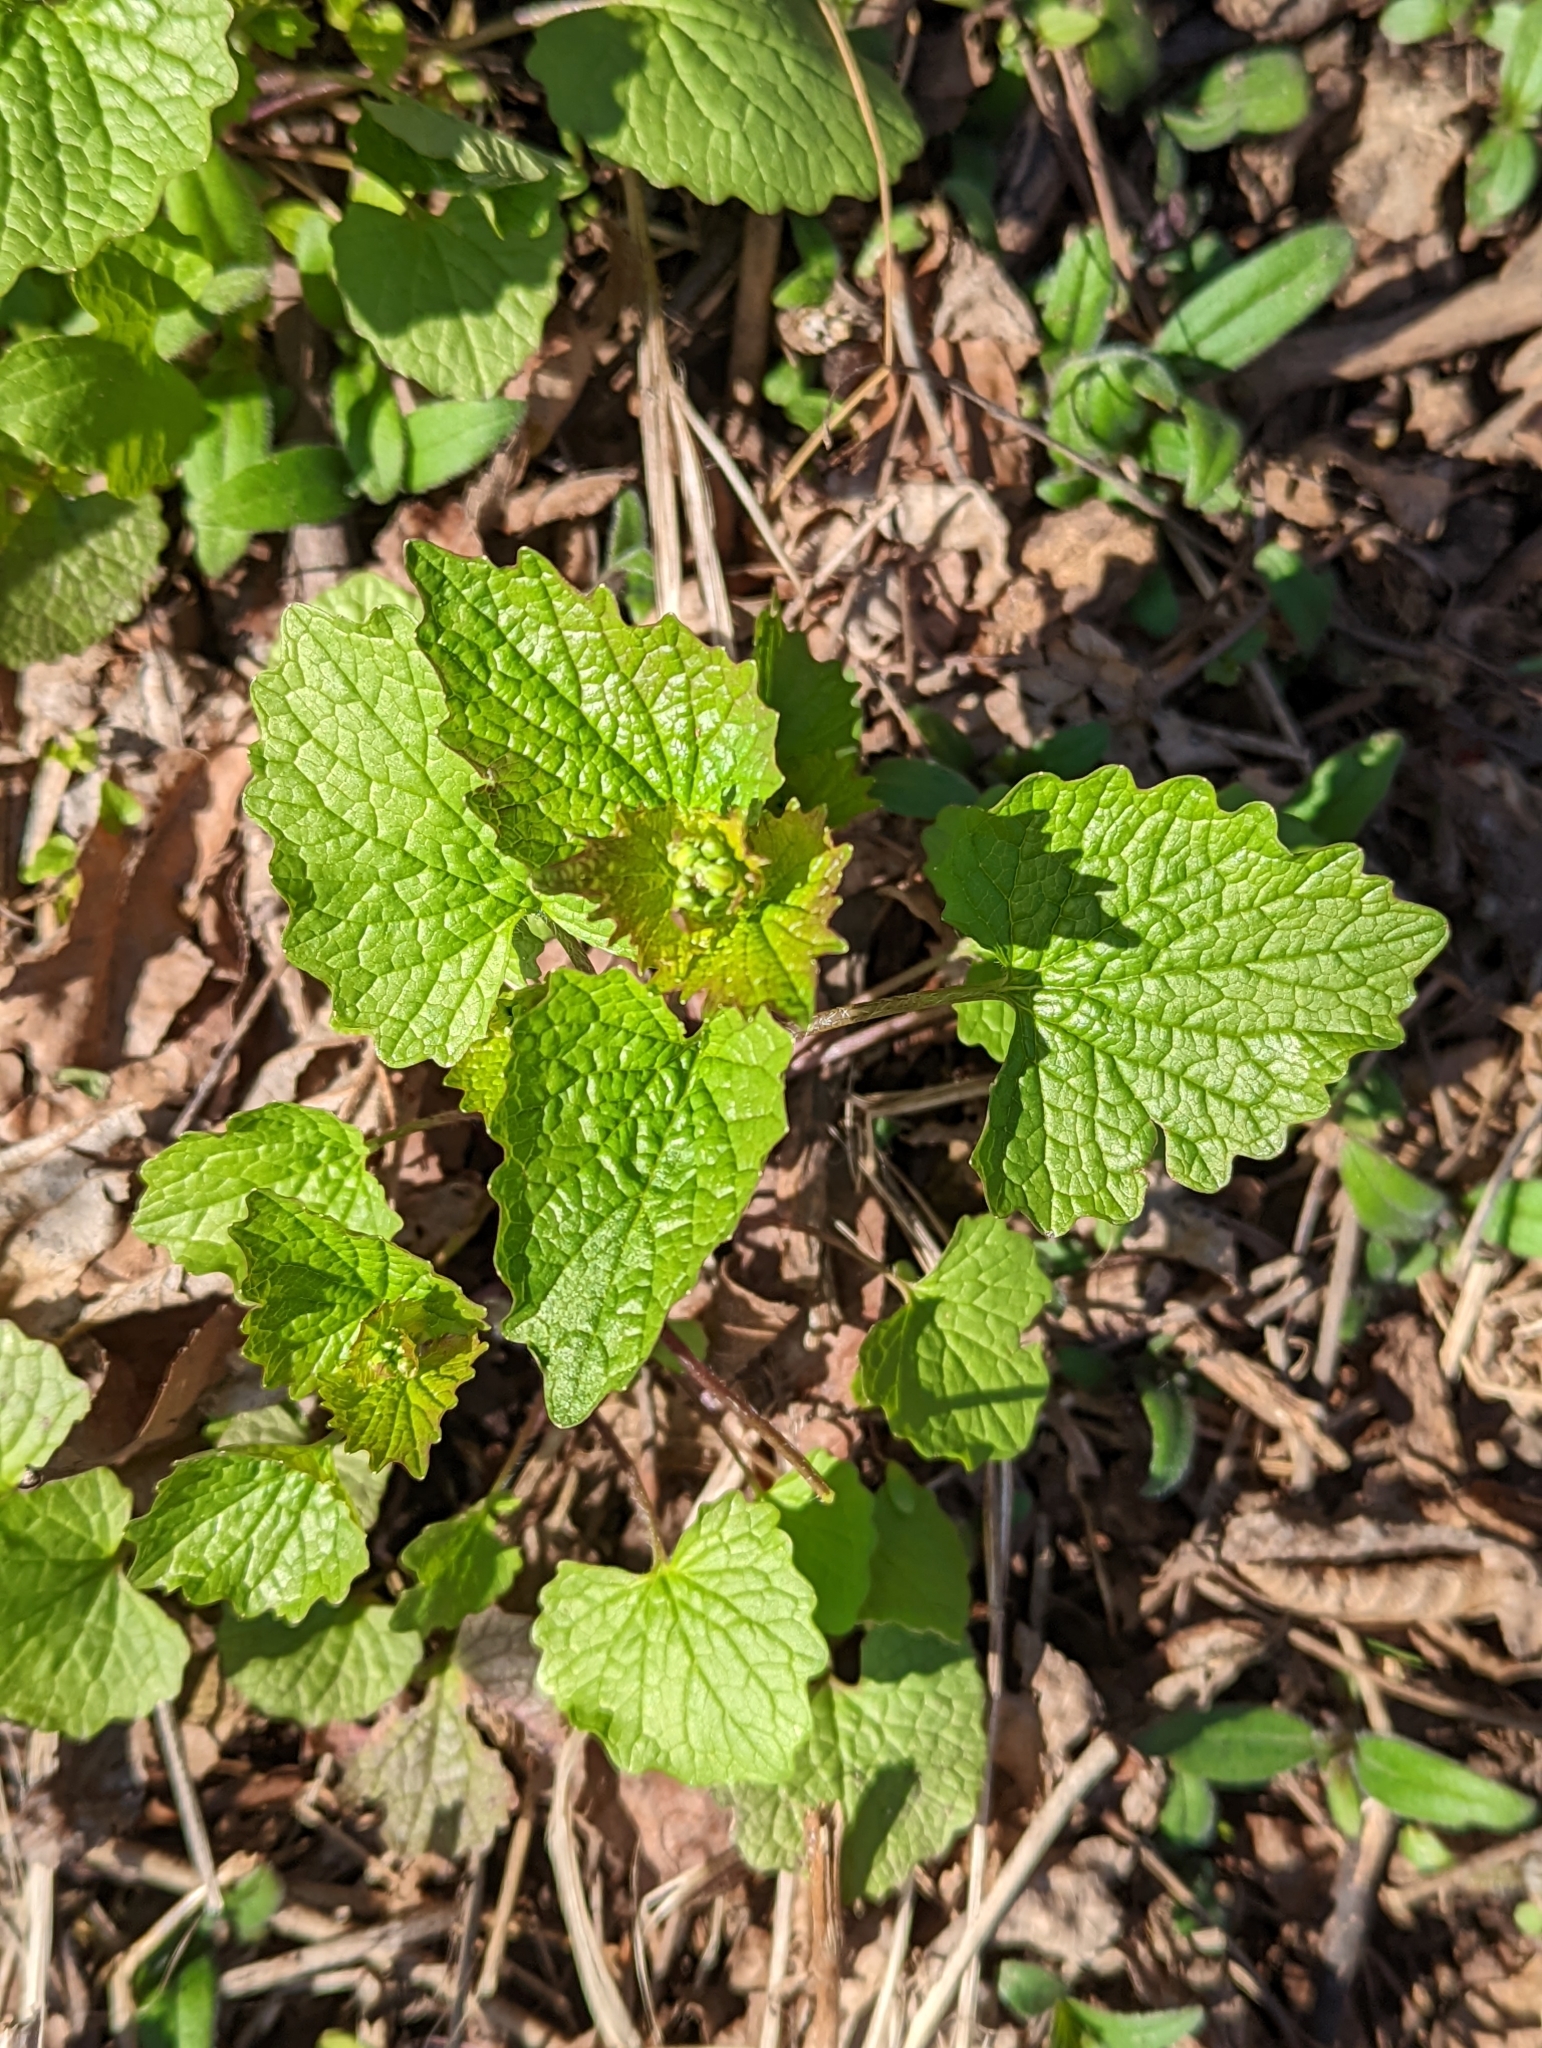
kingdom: Plantae
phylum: Tracheophyta
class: Magnoliopsida
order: Brassicales
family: Brassicaceae
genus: Alliaria
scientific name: Alliaria petiolata
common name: Garlic mustard
